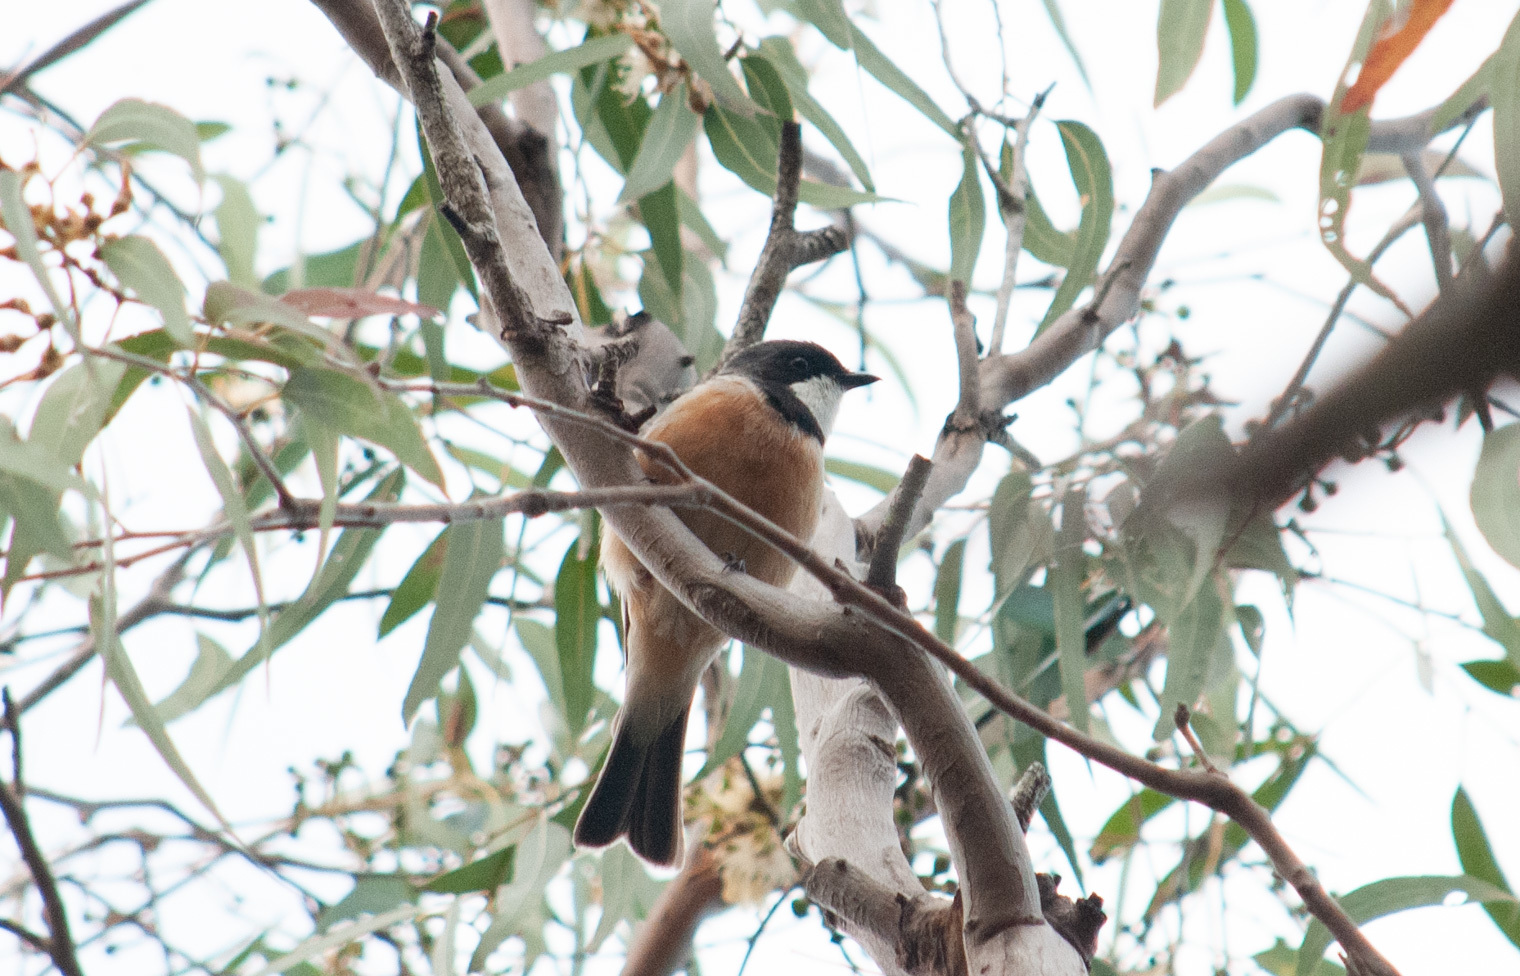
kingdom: Animalia
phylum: Chordata
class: Aves
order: Passeriformes
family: Pachycephalidae
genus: Pachycephala
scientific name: Pachycephala rufiventris
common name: Rufous whistler
